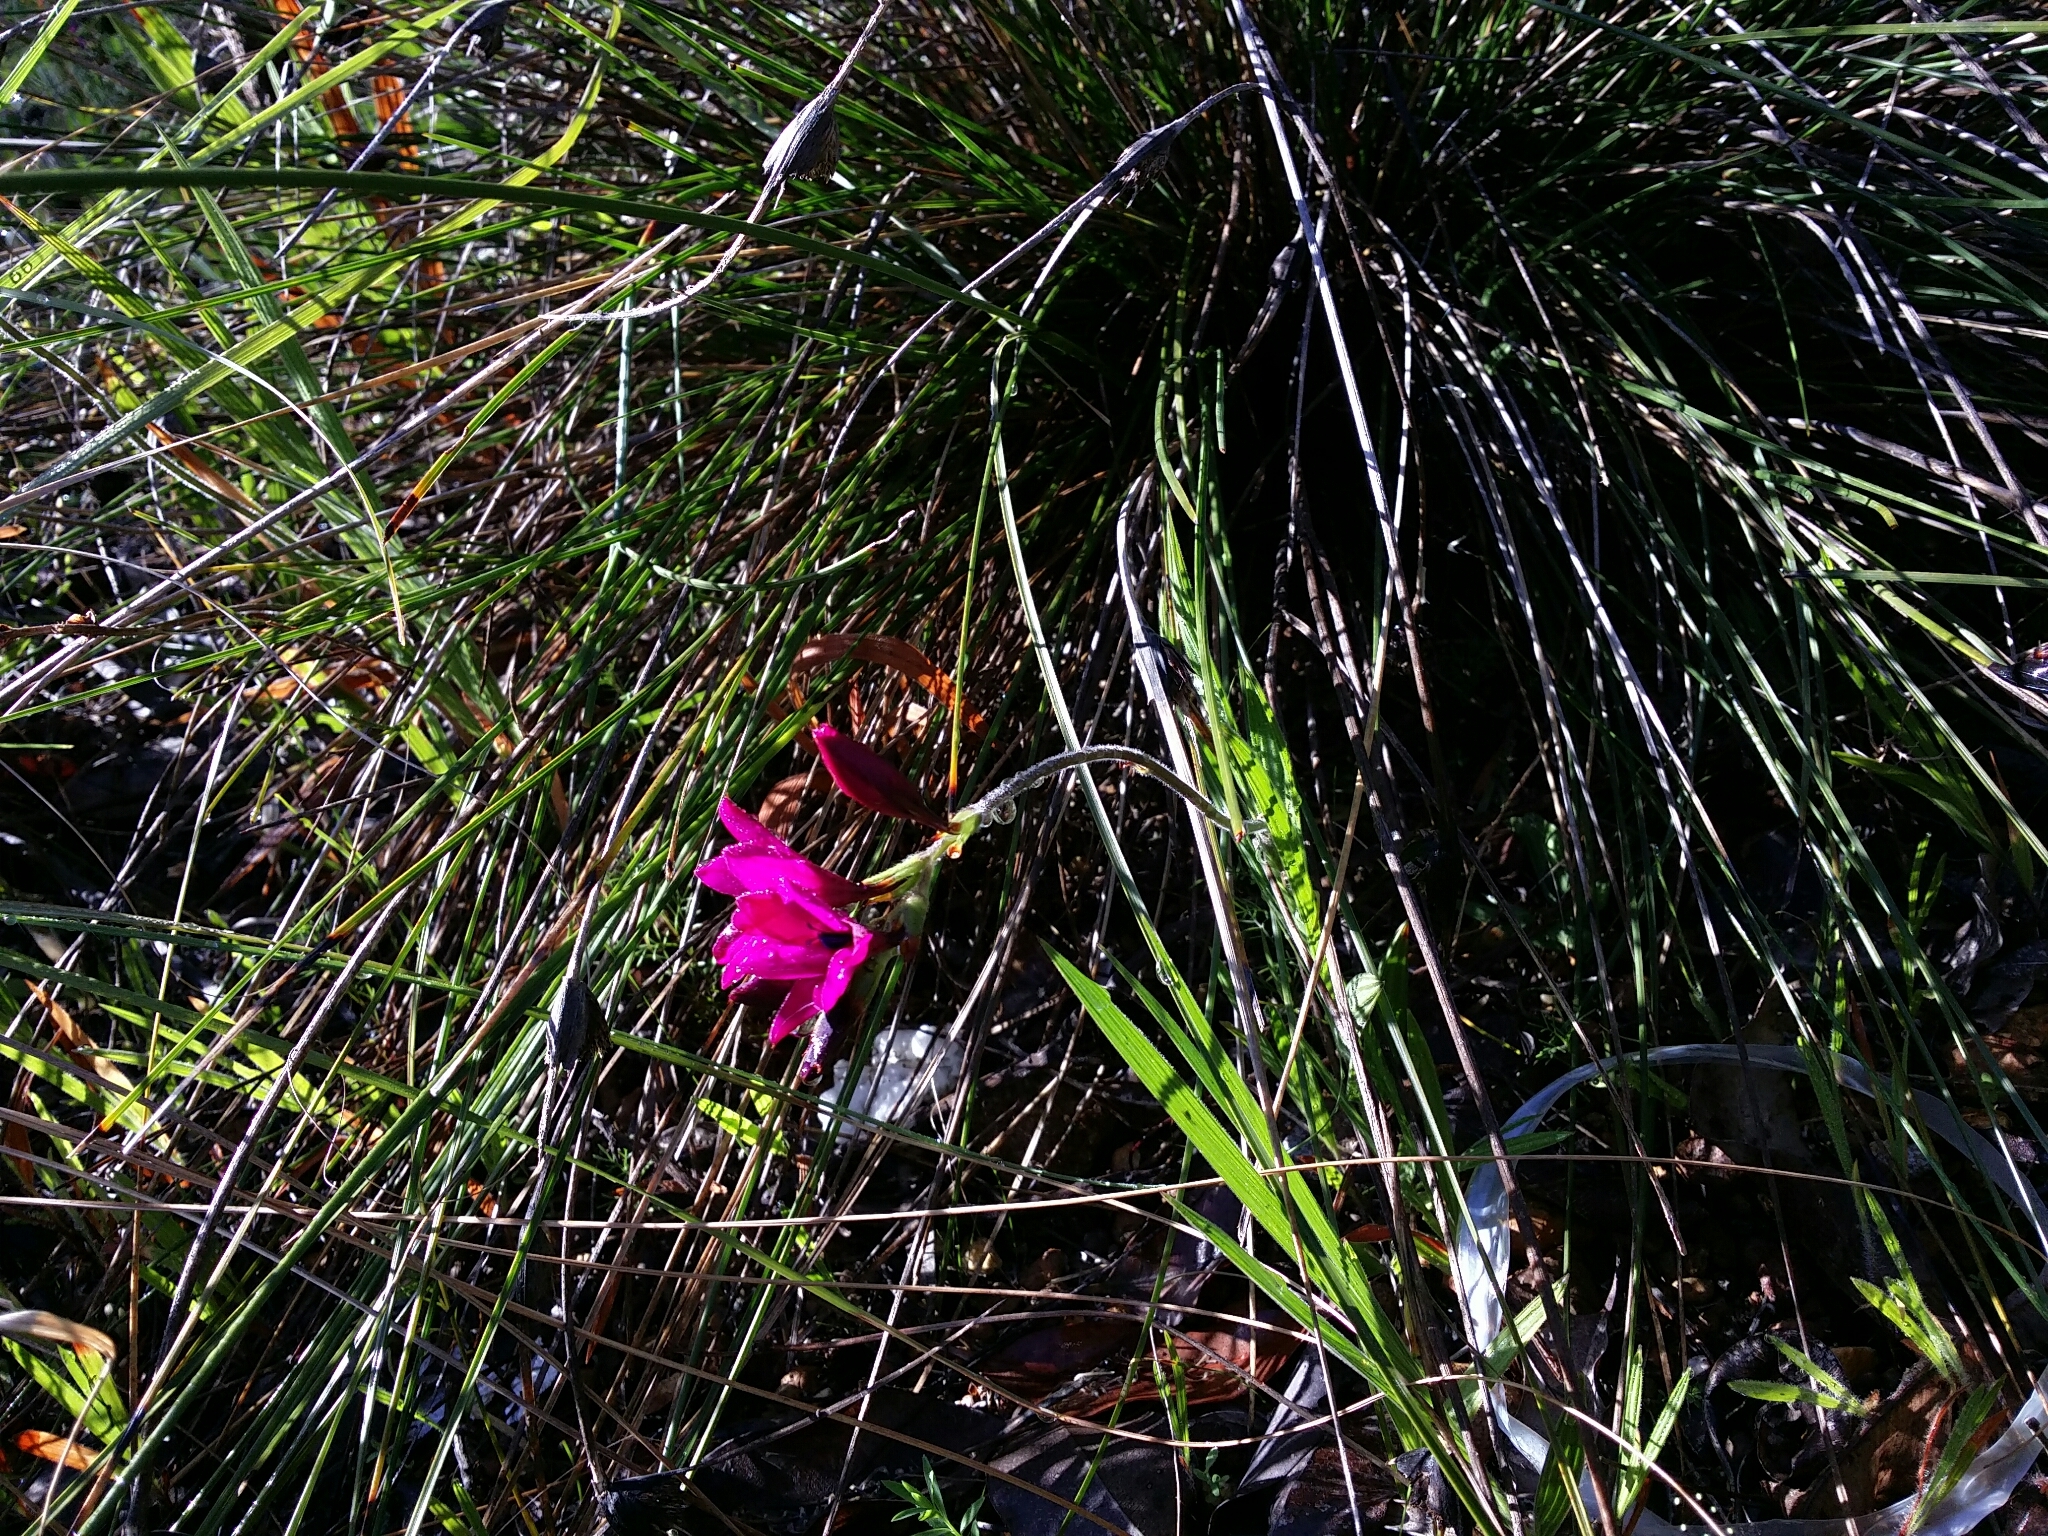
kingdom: Plantae
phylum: Tracheophyta
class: Liliopsida
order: Asparagales
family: Iridaceae
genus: Babiana
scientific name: Babiana angustifolia
